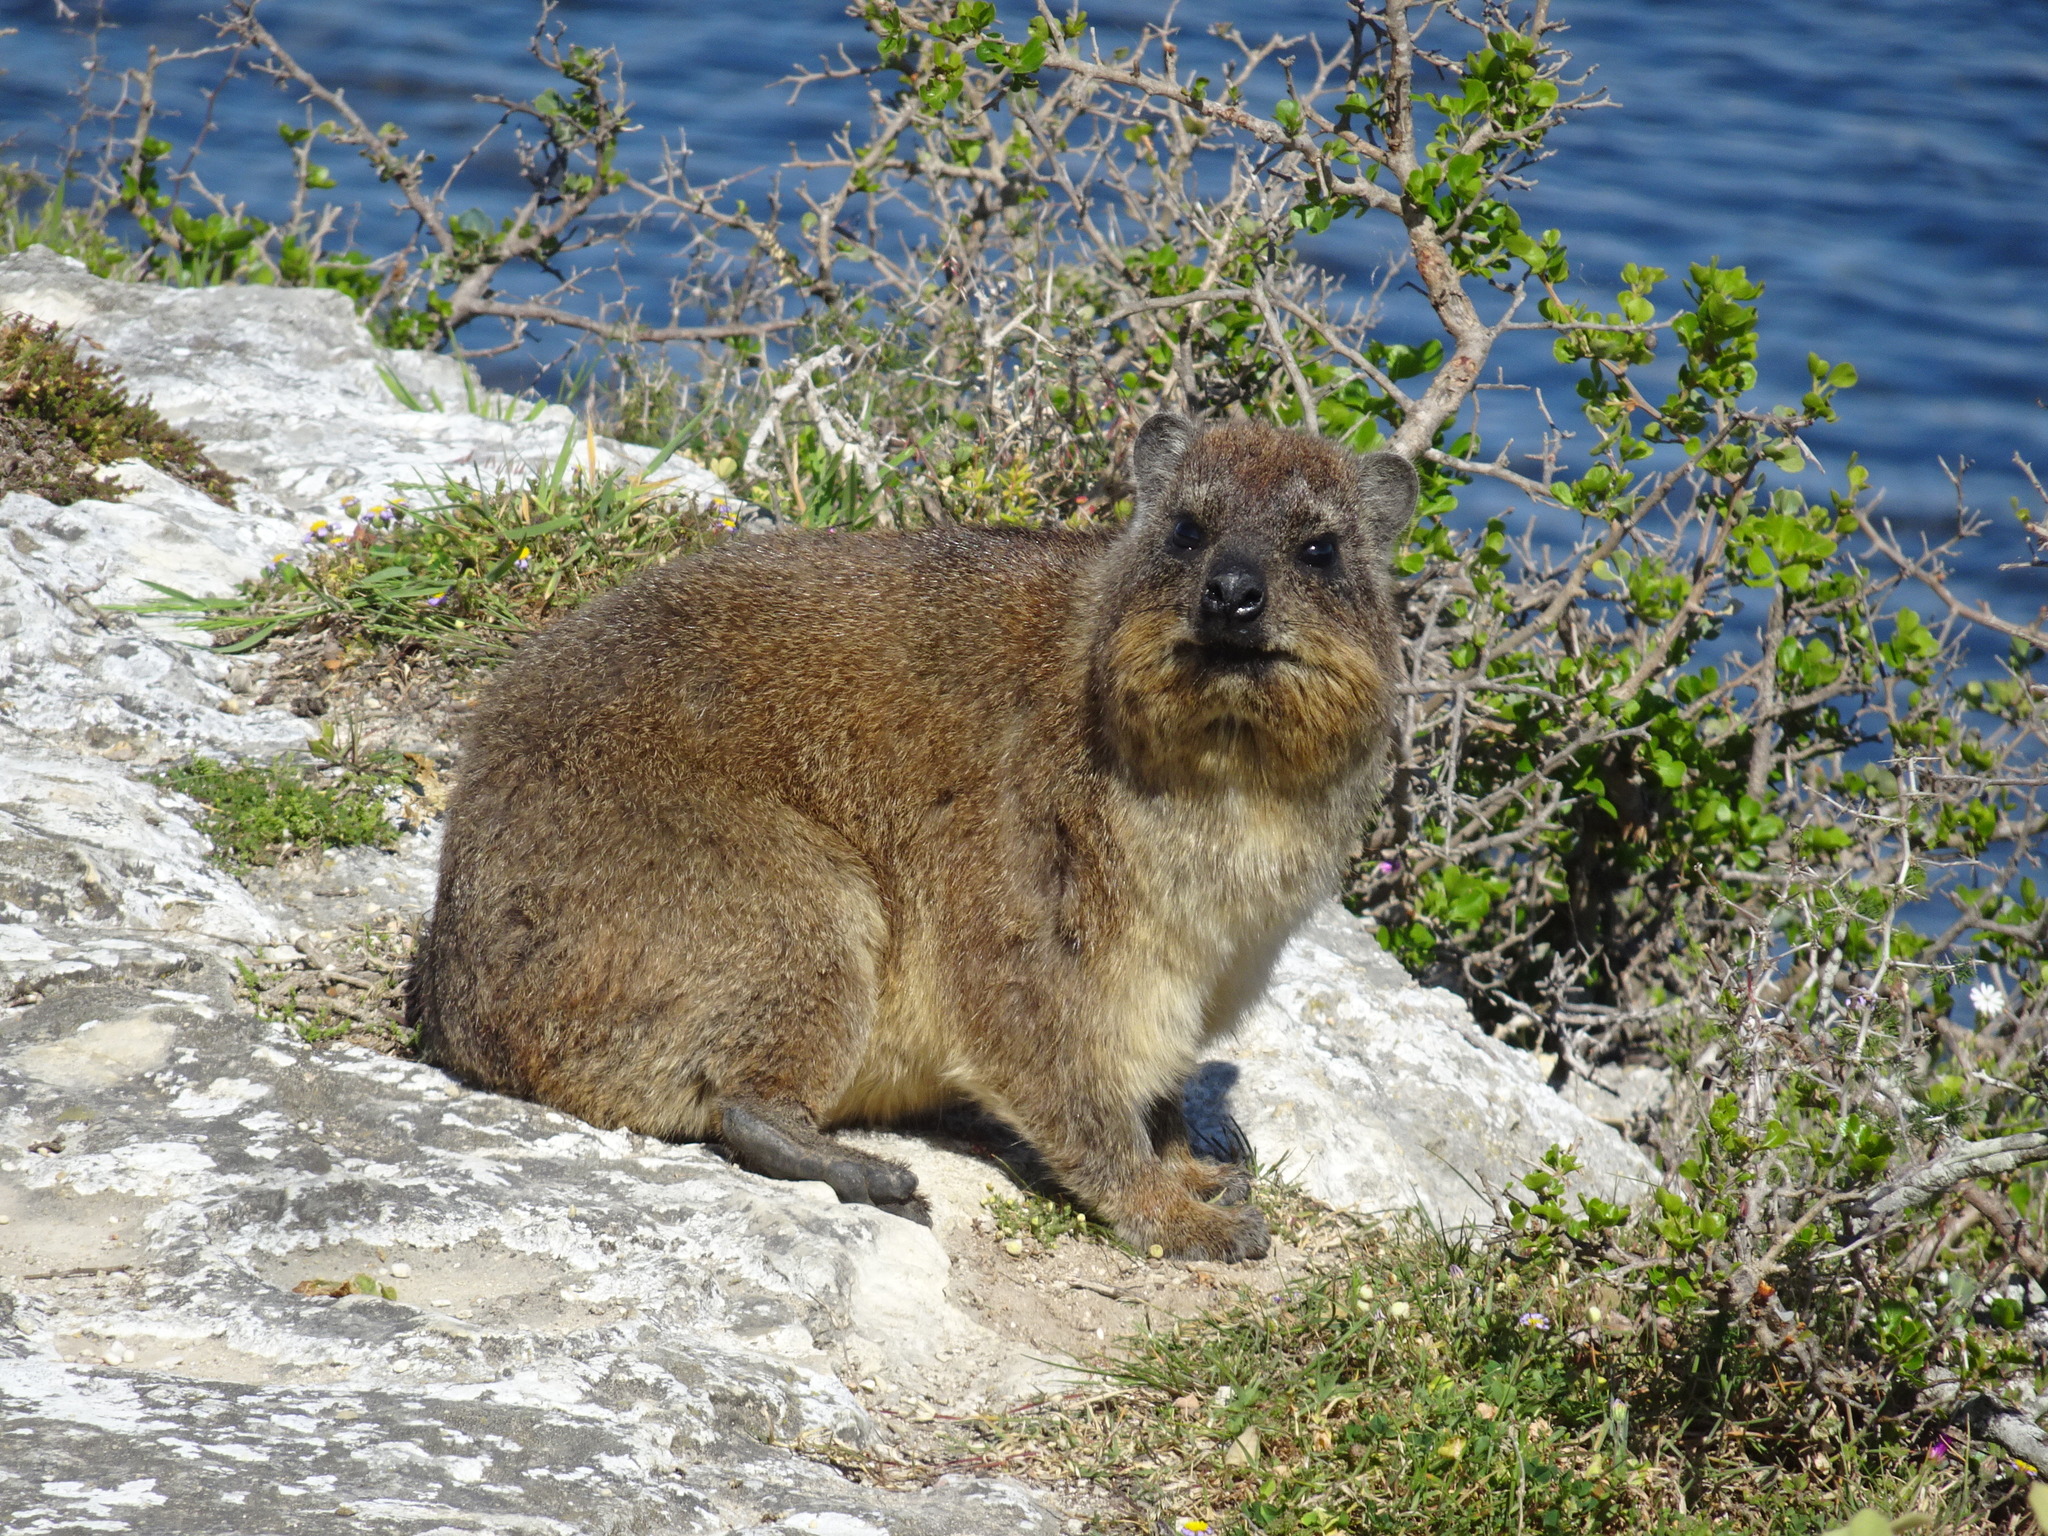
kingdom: Animalia
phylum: Chordata
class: Mammalia
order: Hyracoidea
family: Procaviidae
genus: Procavia
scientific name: Procavia capensis
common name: Rock hyrax
